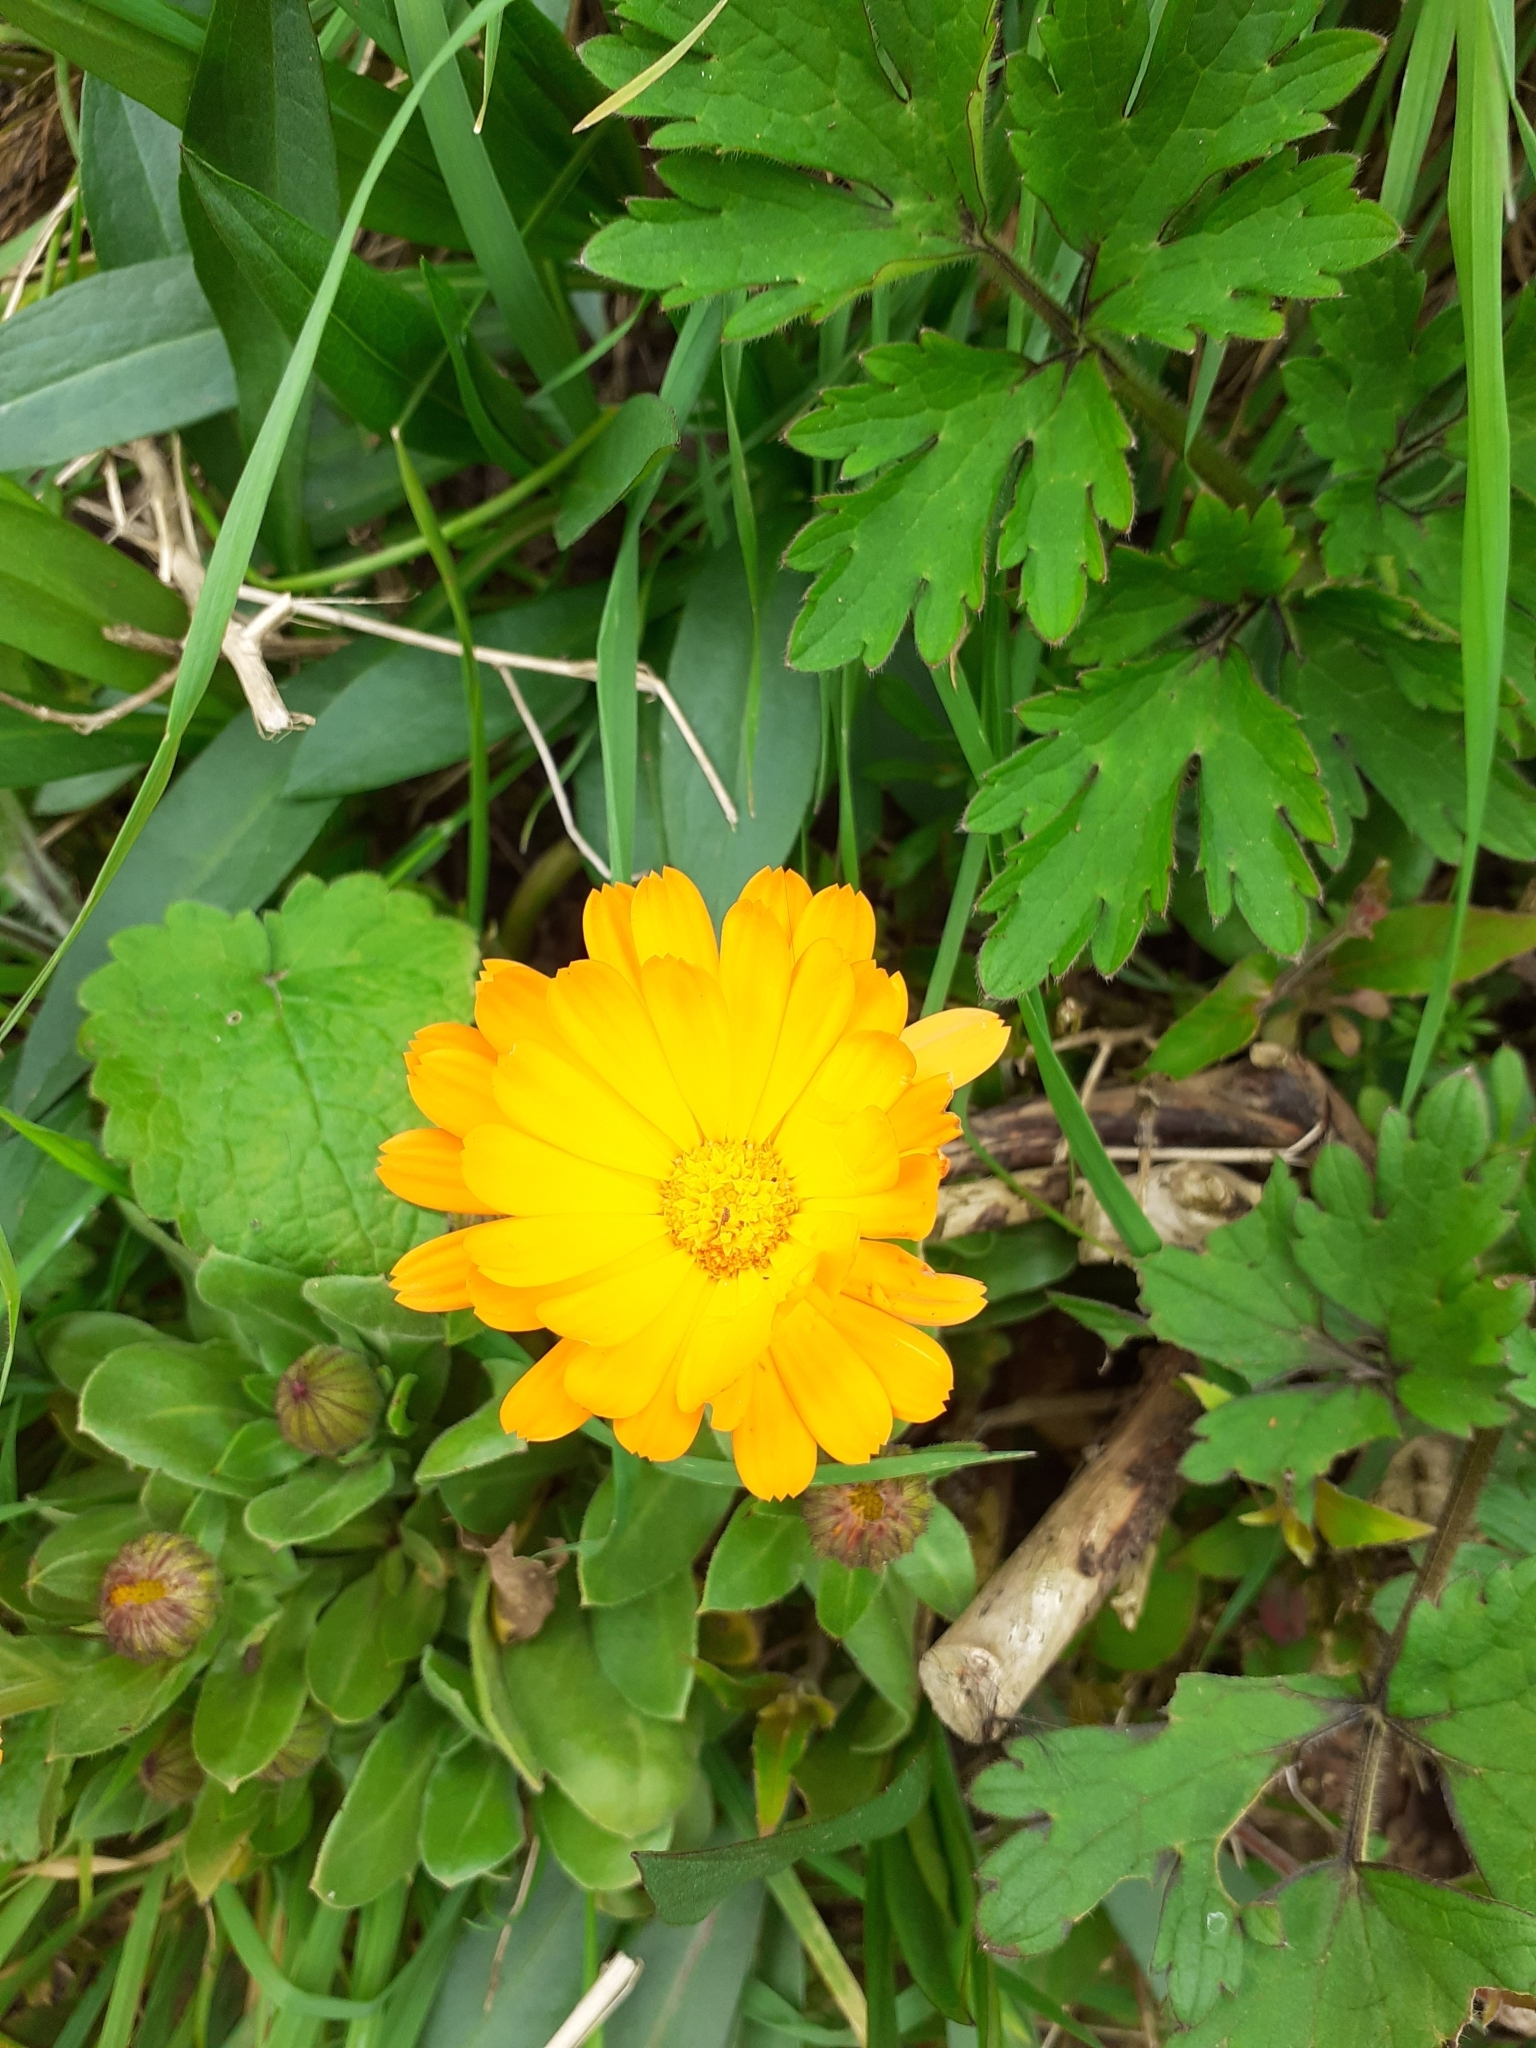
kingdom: Plantae
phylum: Tracheophyta
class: Magnoliopsida
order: Asterales
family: Asteraceae
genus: Calendula
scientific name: Calendula officinalis
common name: Pot marigold
